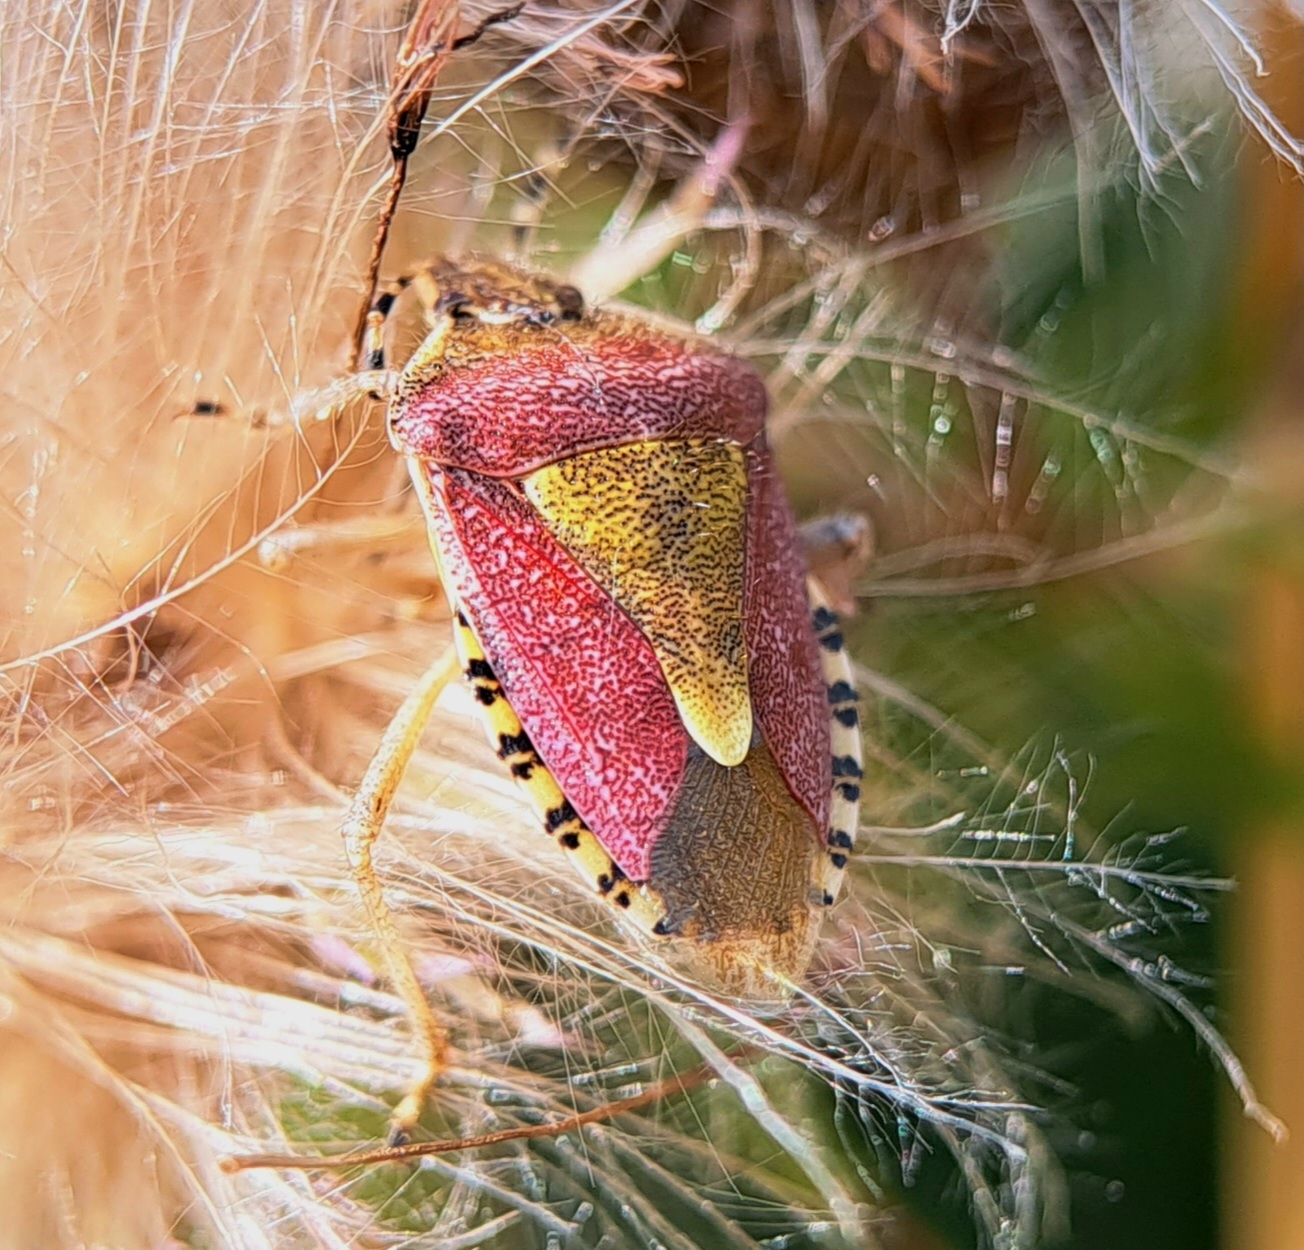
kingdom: Animalia
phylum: Arthropoda
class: Insecta
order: Hemiptera
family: Pentatomidae
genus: Dolycoris
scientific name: Dolycoris baccarum
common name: Sloe bug
